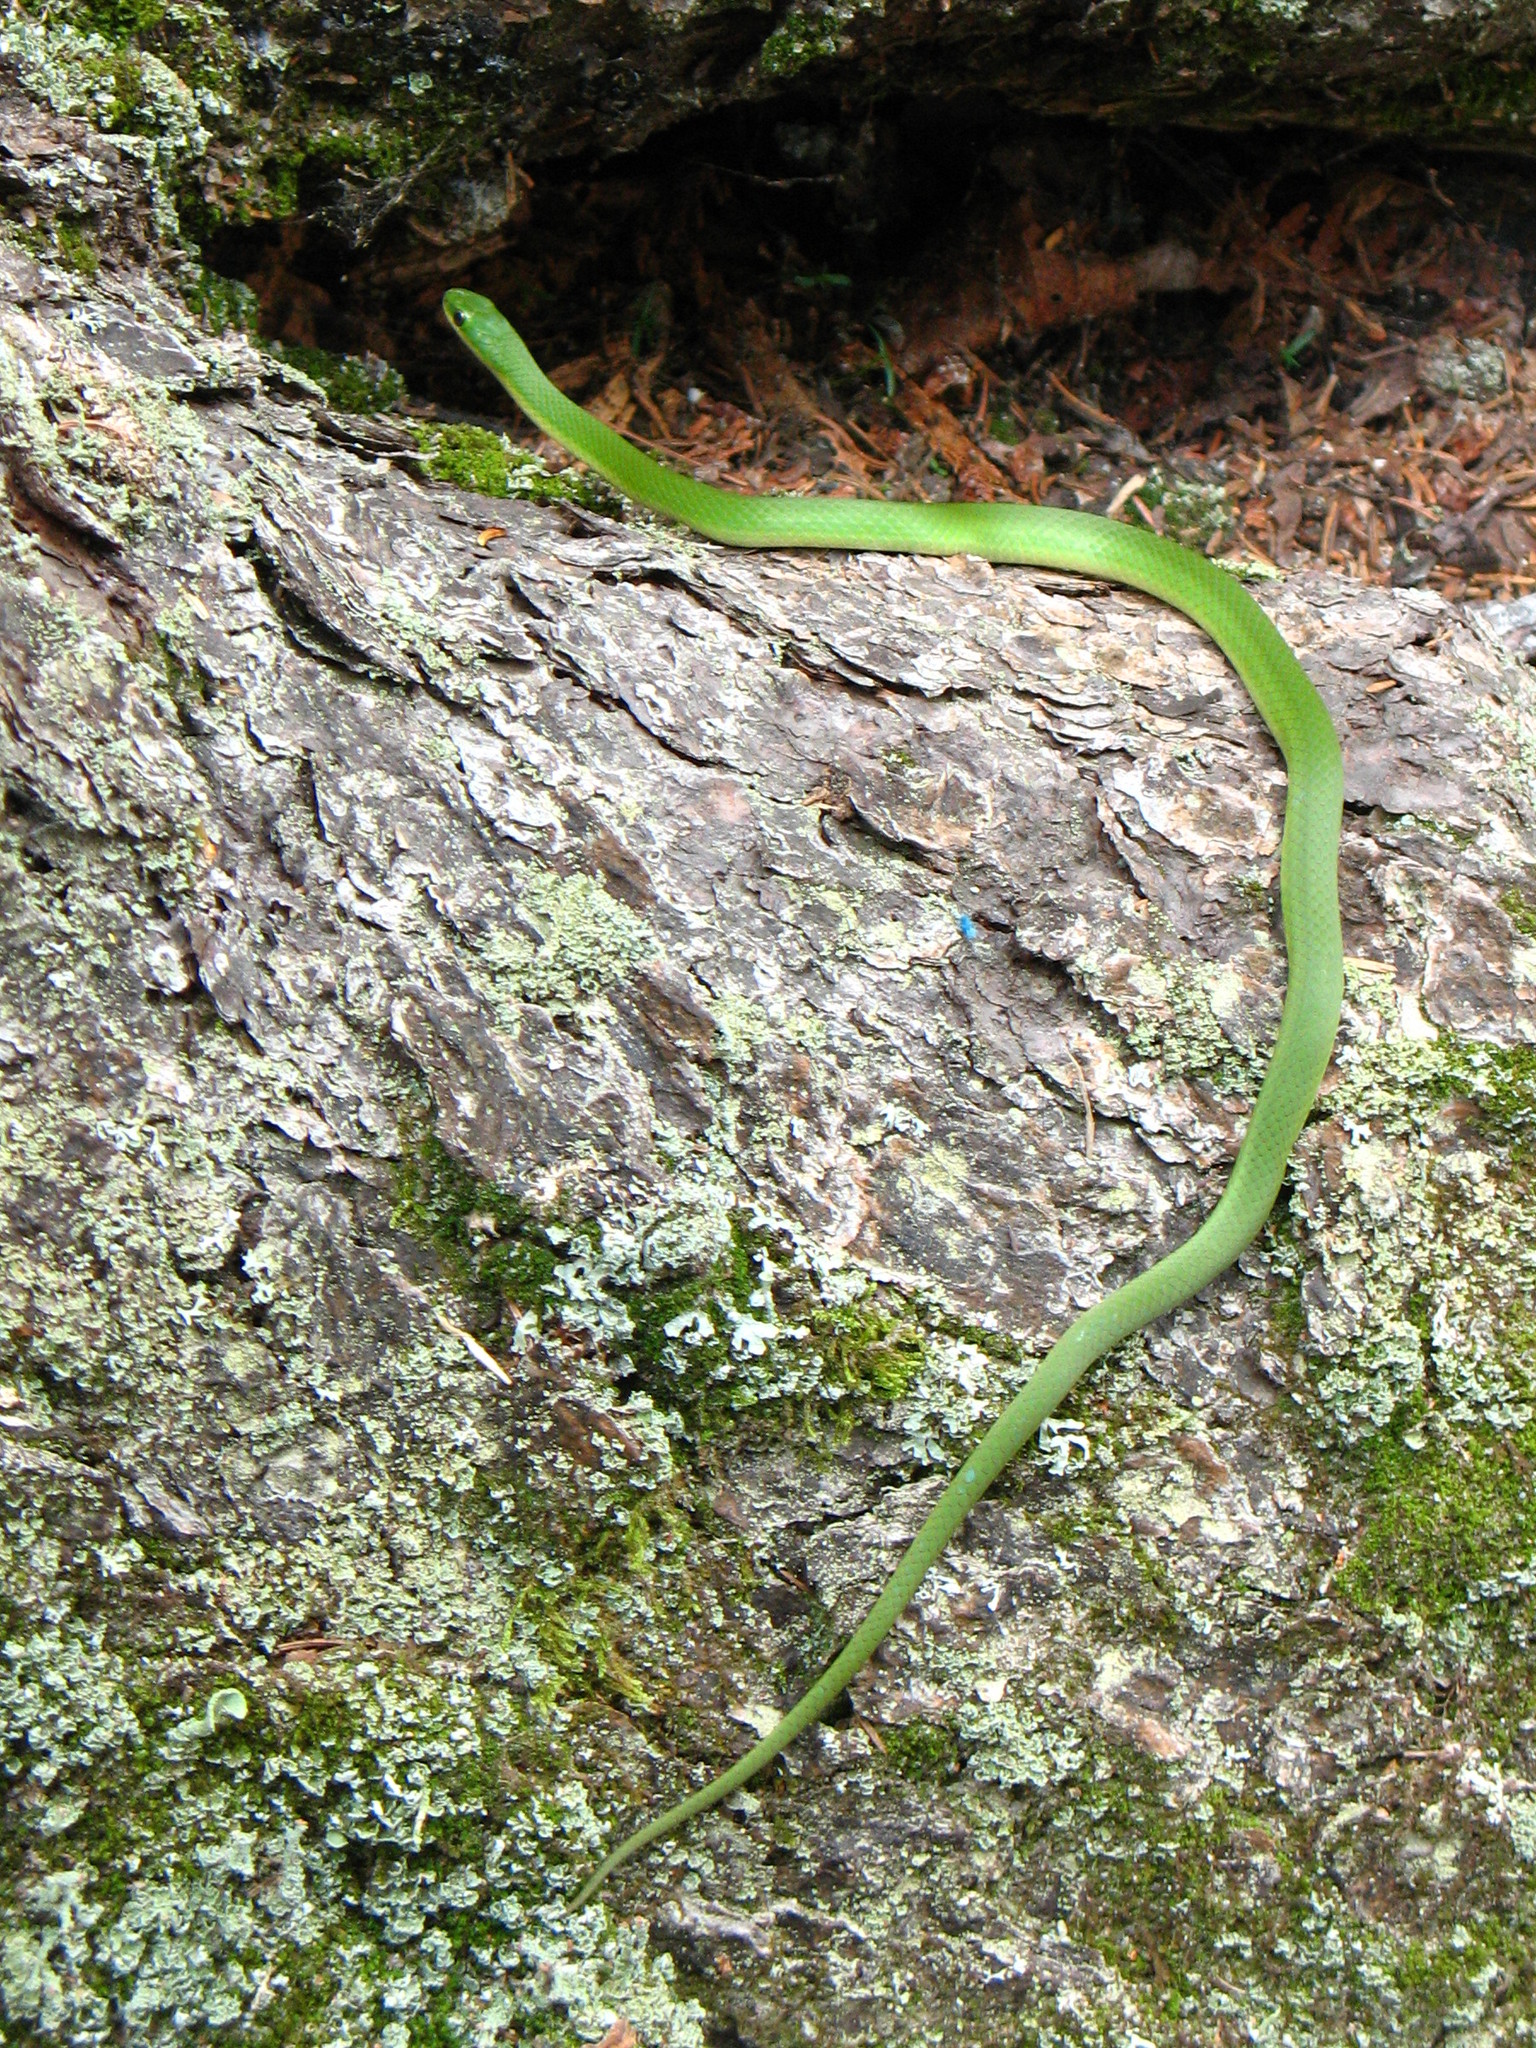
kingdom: Animalia
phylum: Chordata
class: Squamata
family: Colubridae
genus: Opheodrys
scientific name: Opheodrys vernalis
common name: Smooth green snake
